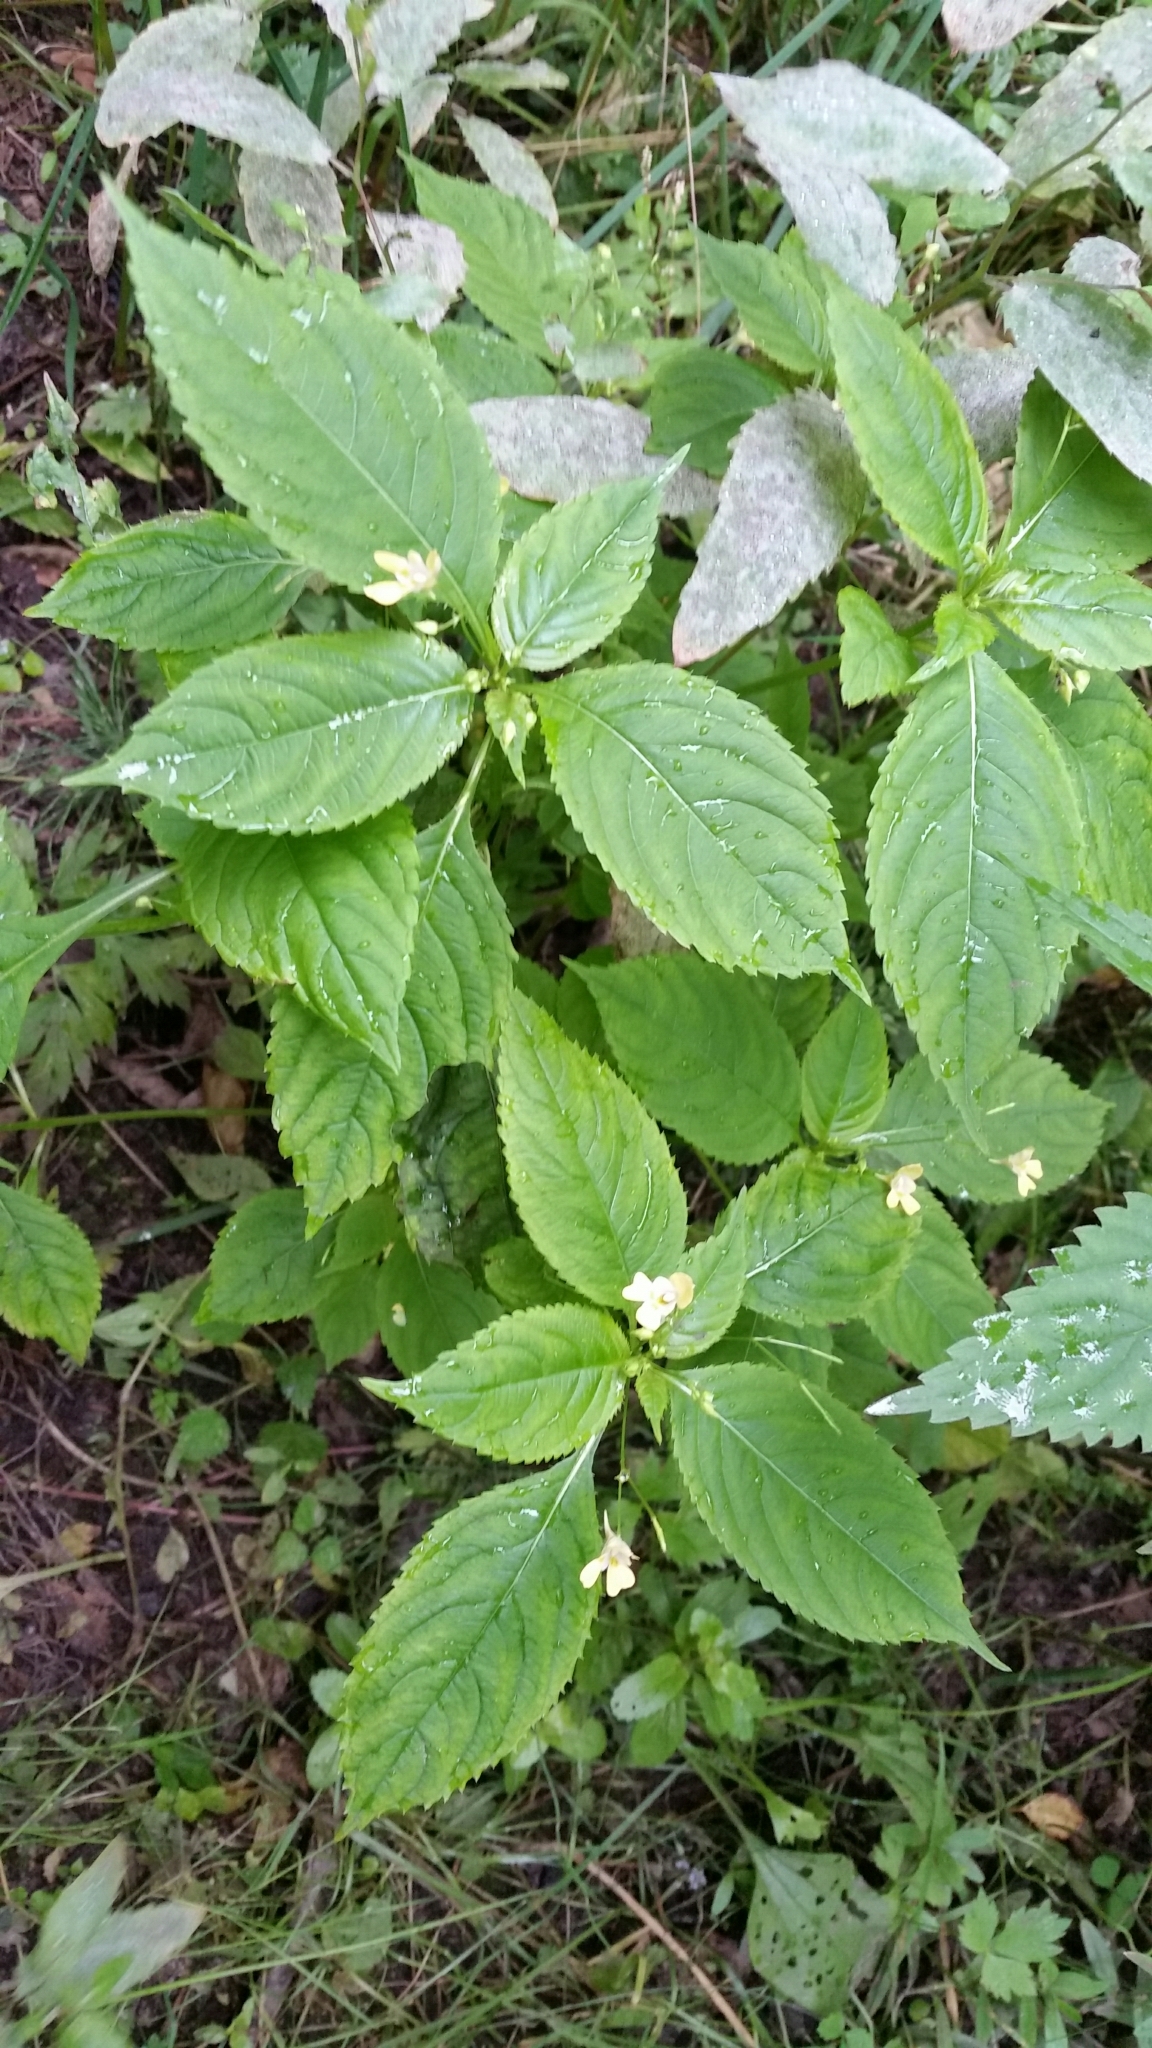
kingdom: Plantae
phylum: Tracheophyta
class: Magnoliopsida
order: Ericales
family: Balsaminaceae
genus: Impatiens
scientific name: Impatiens parviflora
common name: Small balsam
